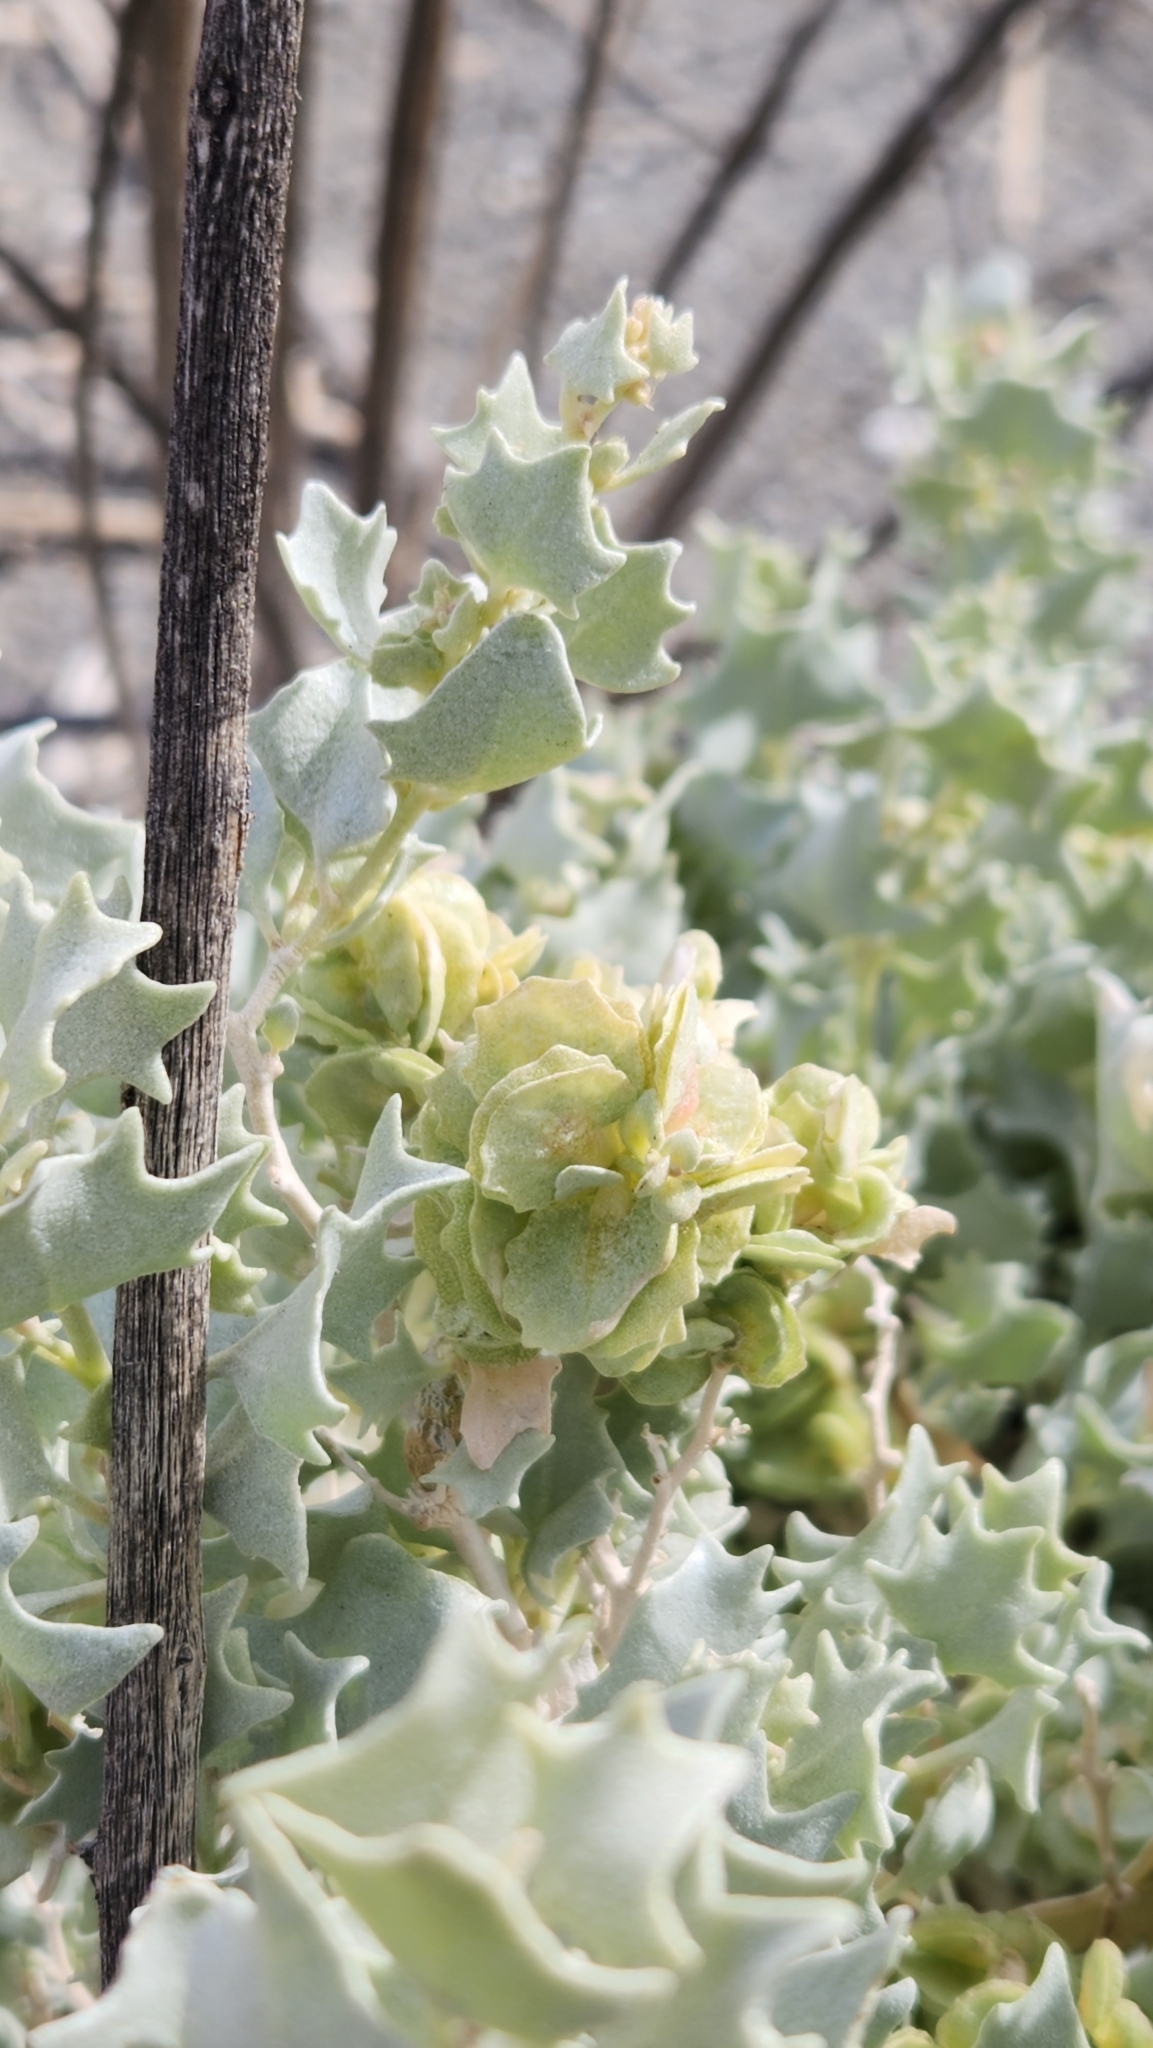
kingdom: Plantae
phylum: Tracheophyta
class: Magnoliopsida
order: Caryophyllales
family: Amaranthaceae
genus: Atriplex
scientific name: Atriplex hymenelytra
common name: Desert-holly
